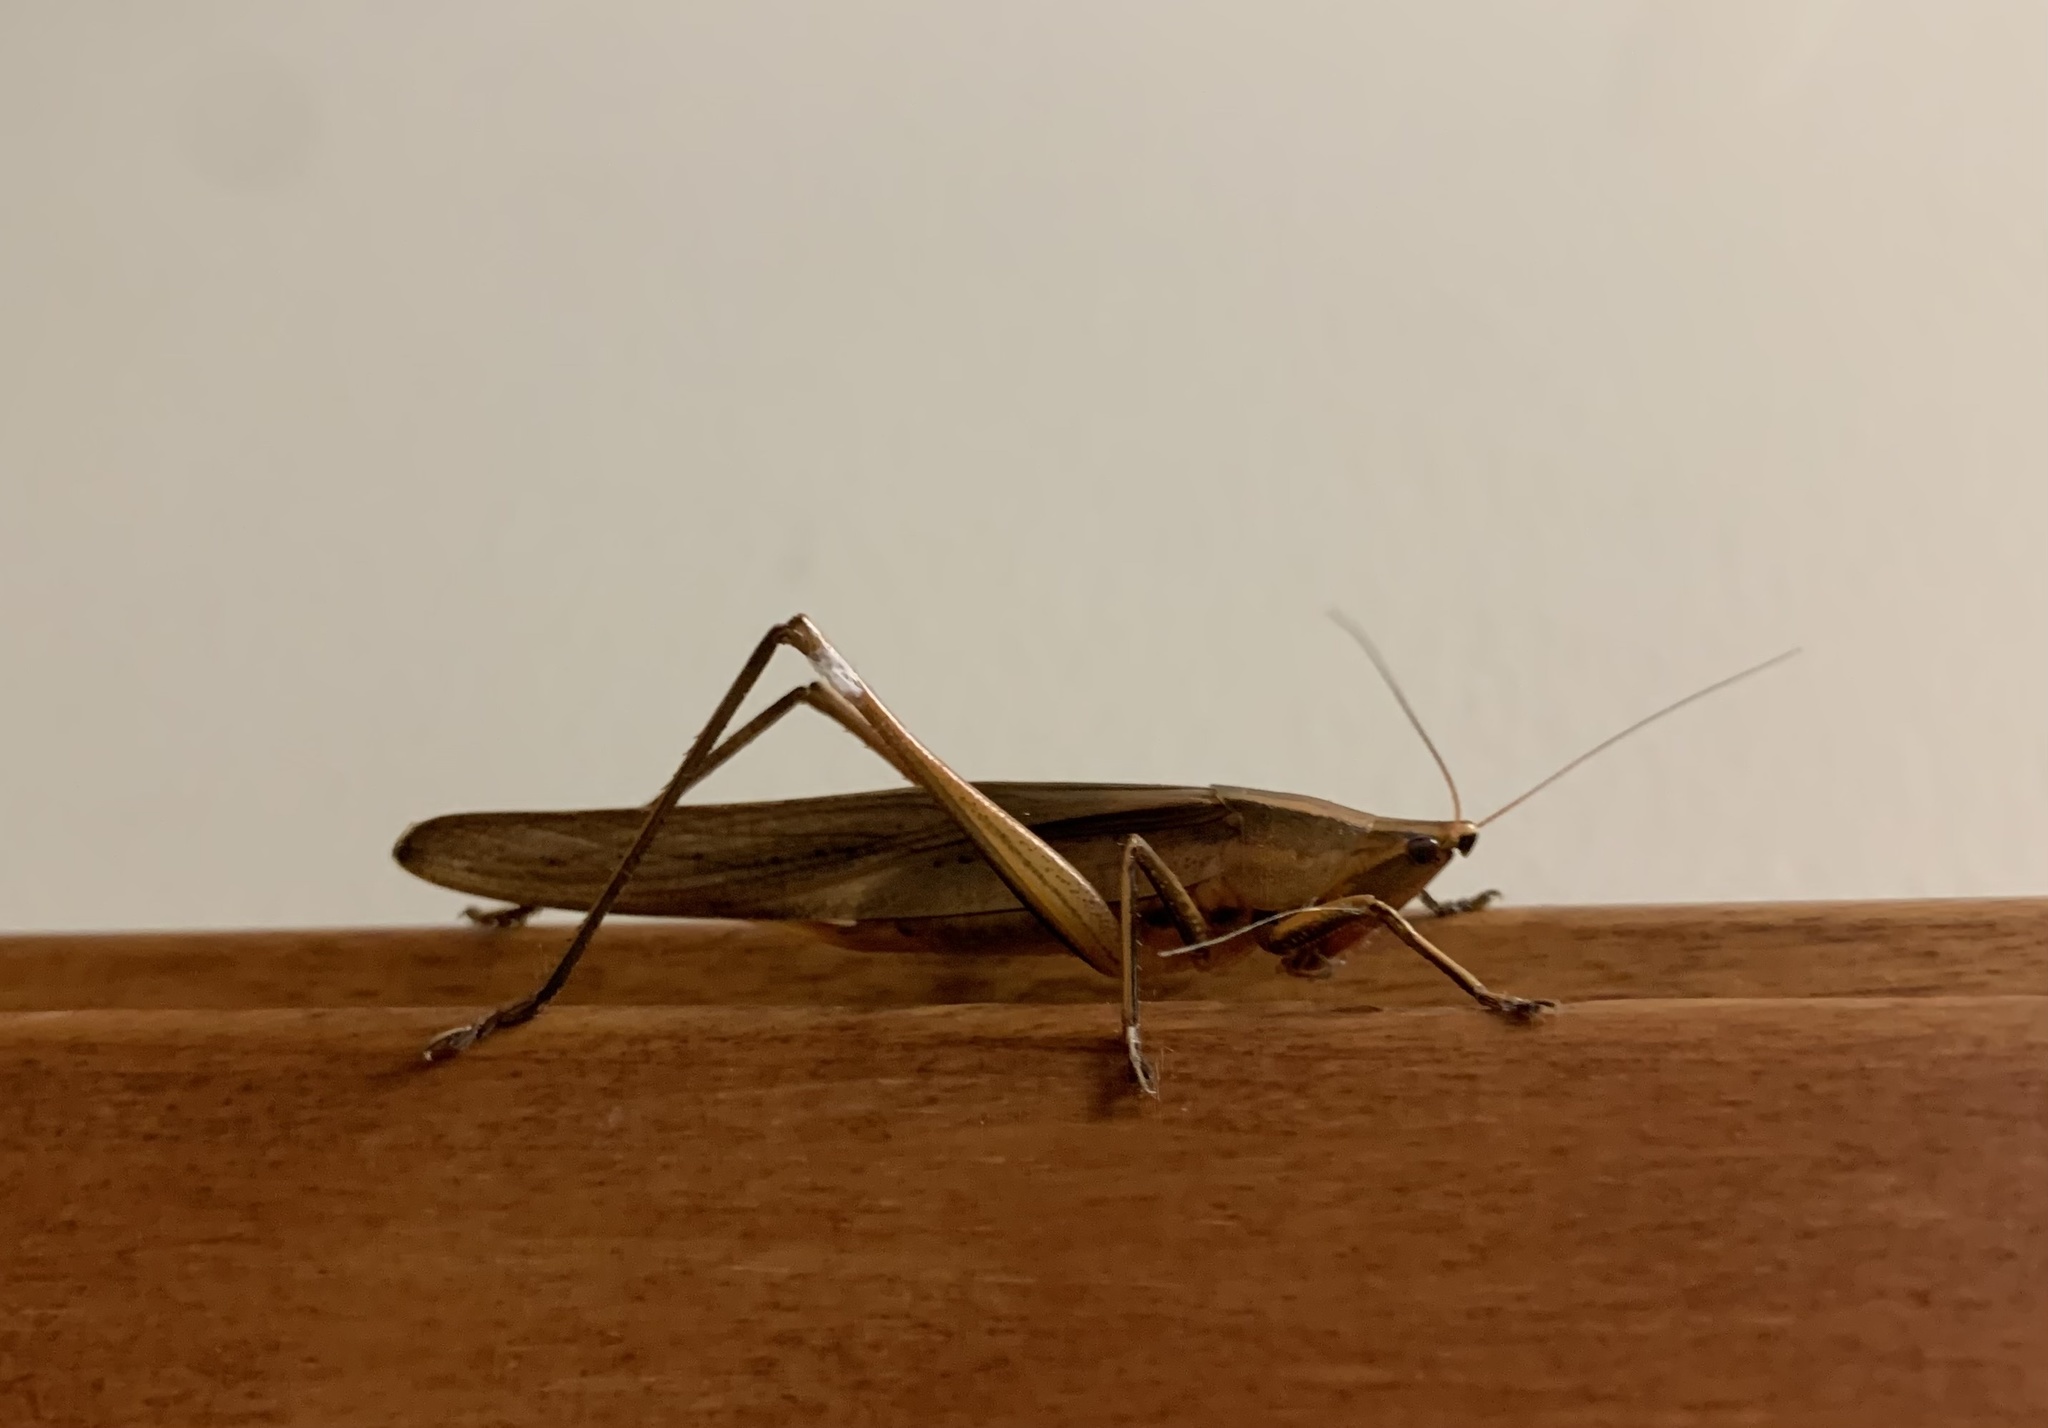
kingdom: Animalia
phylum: Arthropoda
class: Insecta
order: Orthoptera
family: Tettigoniidae
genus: Neoconocephalus
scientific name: Neoconocephalus triops
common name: Broad-tipped conehead
